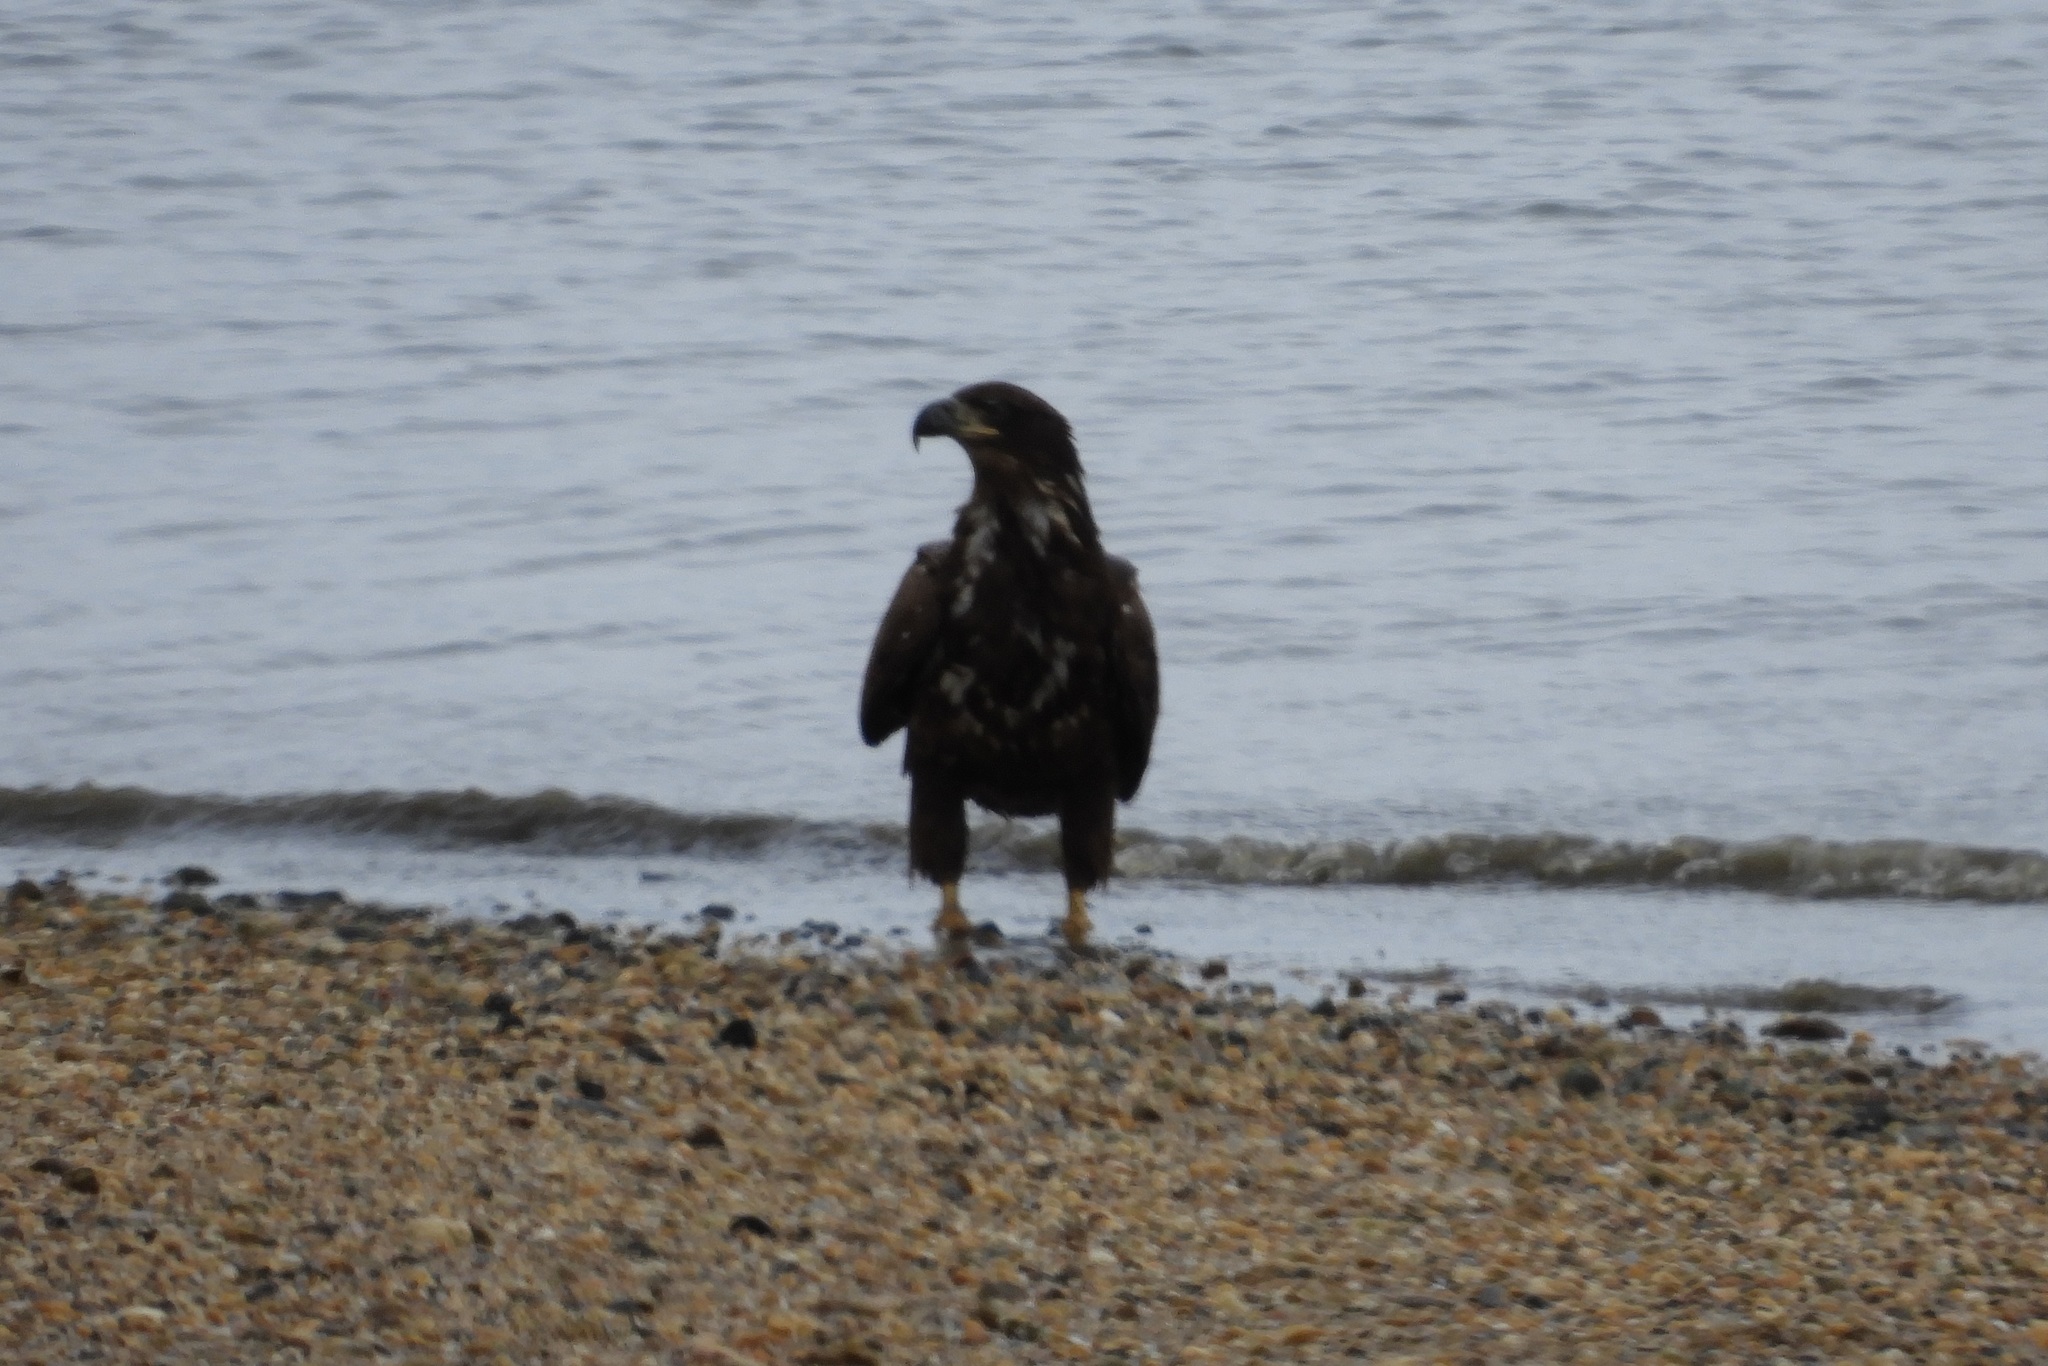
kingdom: Animalia
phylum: Chordata
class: Aves
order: Accipitriformes
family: Accipitridae
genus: Haliaeetus
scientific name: Haliaeetus leucocephalus
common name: Bald eagle
